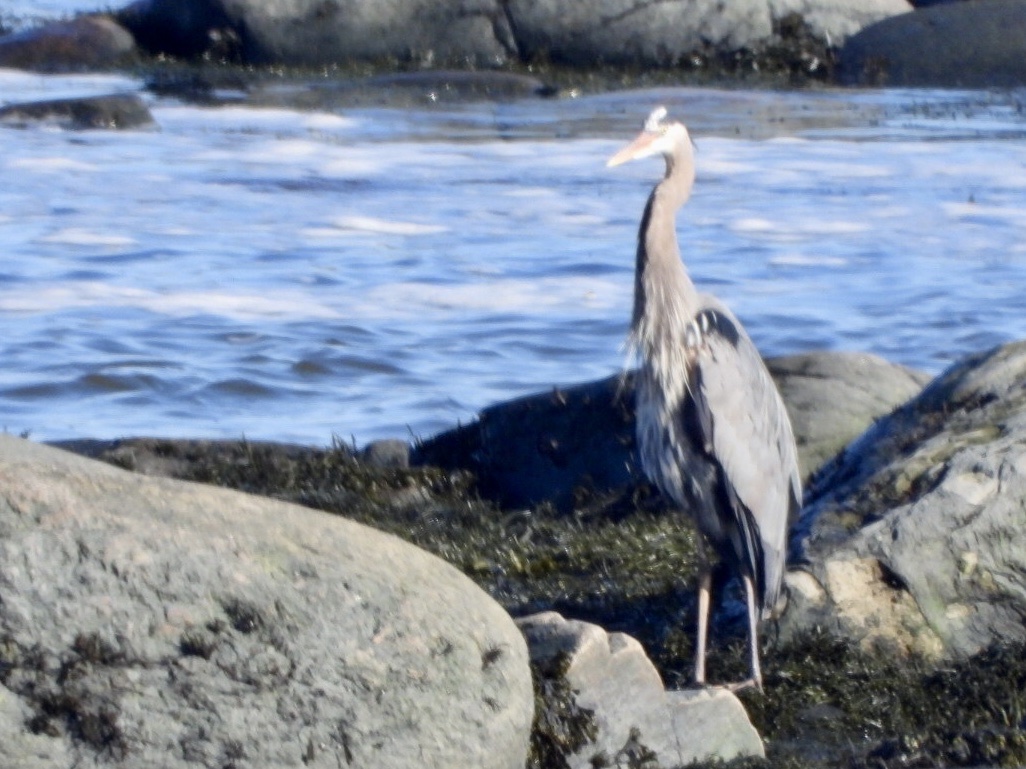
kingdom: Animalia
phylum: Chordata
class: Aves
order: Pelecaniformes
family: Ardeidae
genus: Ardea
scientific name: Ardea herodias
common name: Great blue heron
